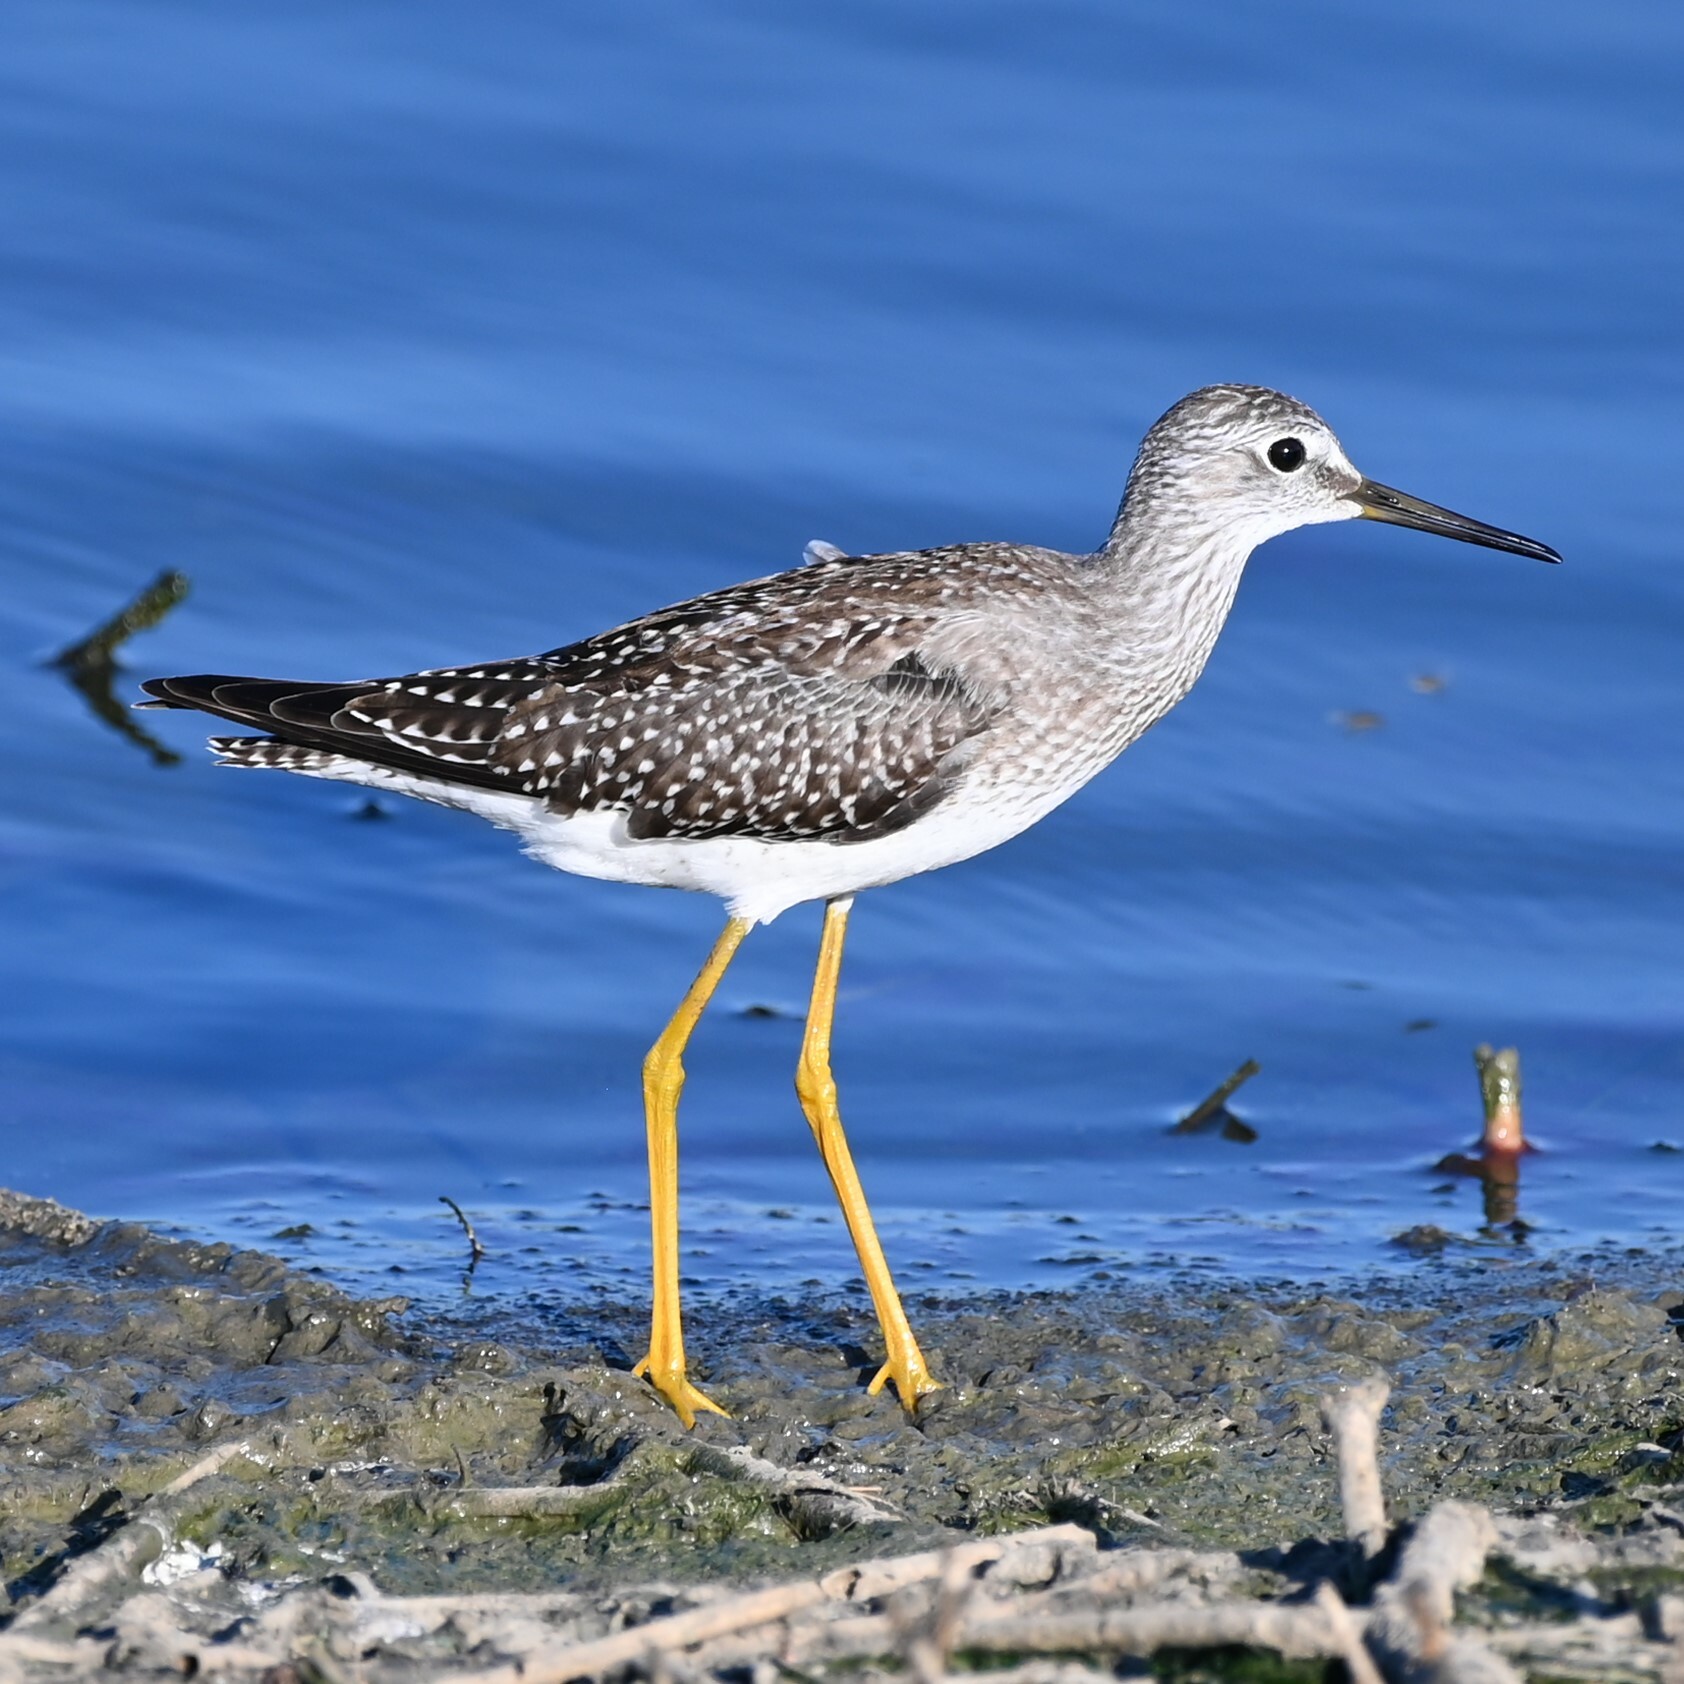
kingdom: Animalia
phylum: Chordata
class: Aves
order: Charadriiformes
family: Scolopacidae
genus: Tringa
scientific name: Tringa flavipes
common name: Lesser yellowlegs
